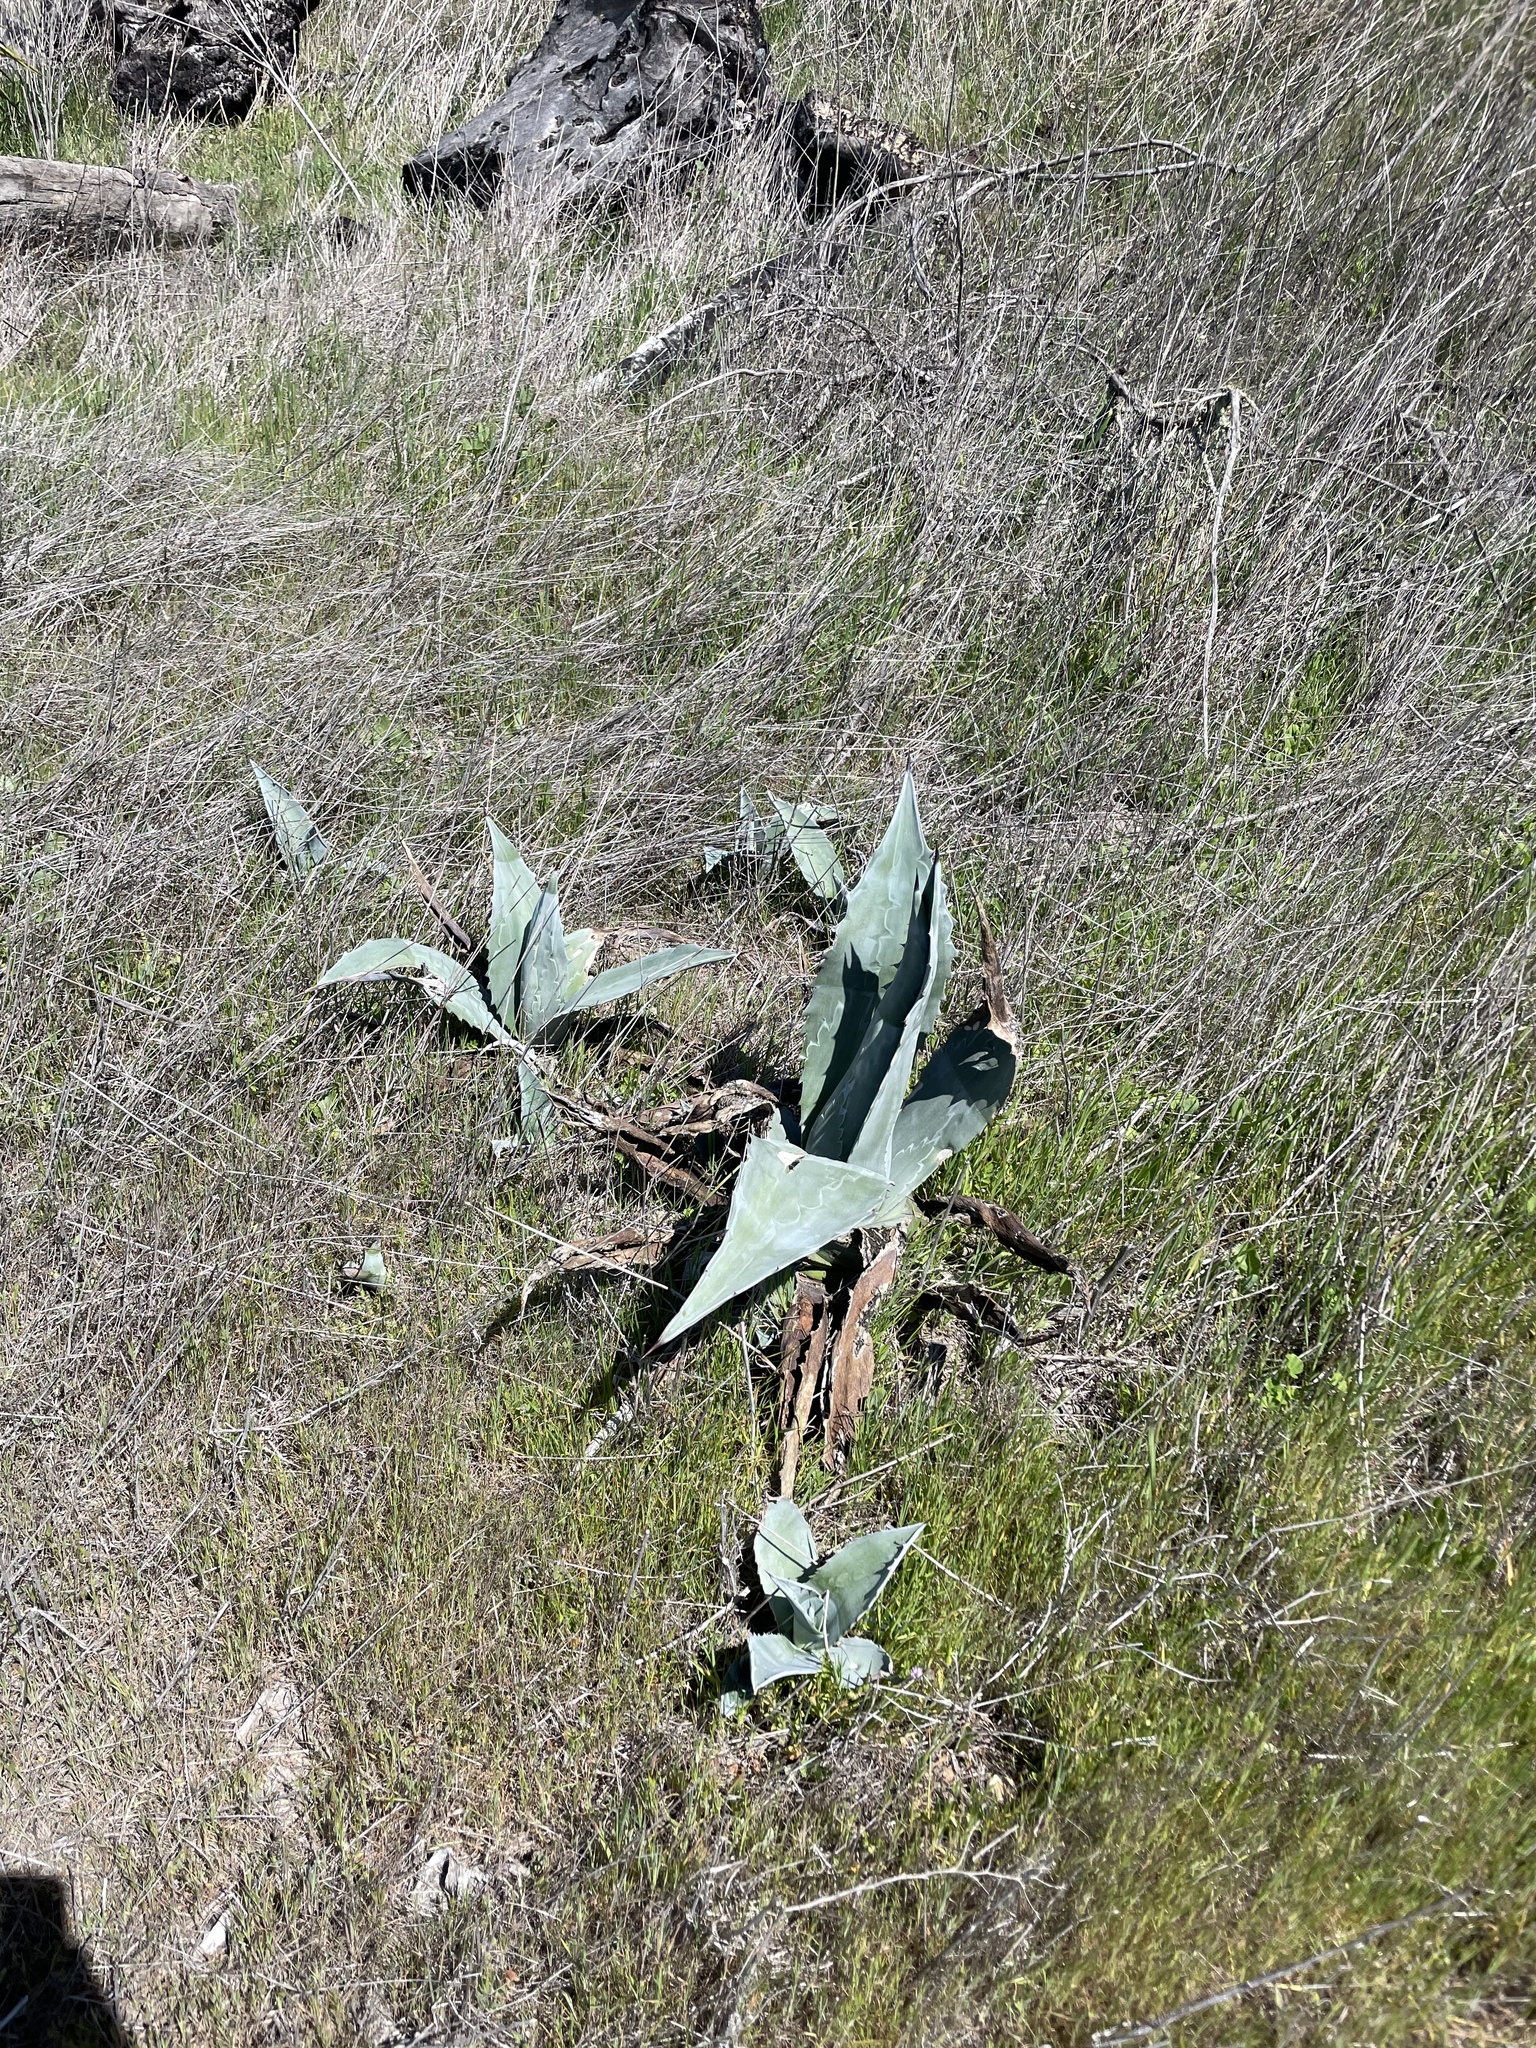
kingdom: Plantae
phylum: Tracheophyta
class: Liliopsida
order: Asparagales
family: Asparagaceae
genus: Agave
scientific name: Agave americana
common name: Centuryplant
